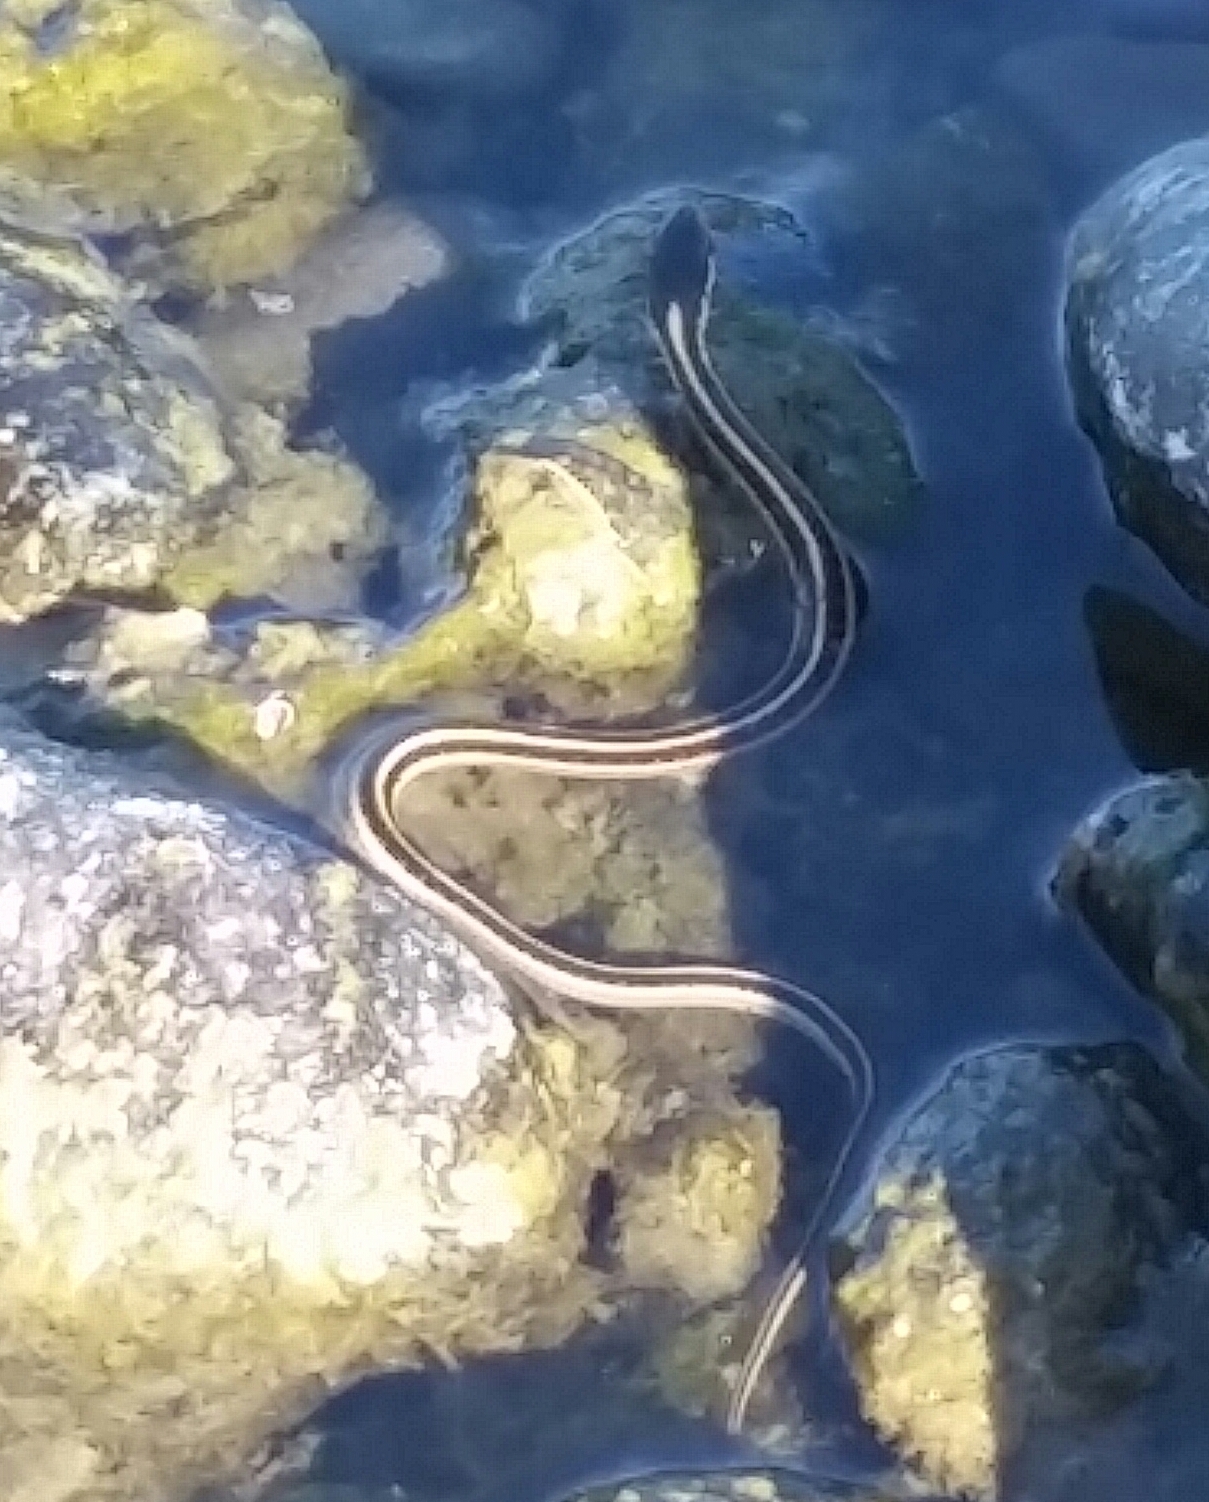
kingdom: Animalia
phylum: Chordata
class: Squamata
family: Colubridae
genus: Thamnophis
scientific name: Thamnophis sirtalis
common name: Common garter snake
